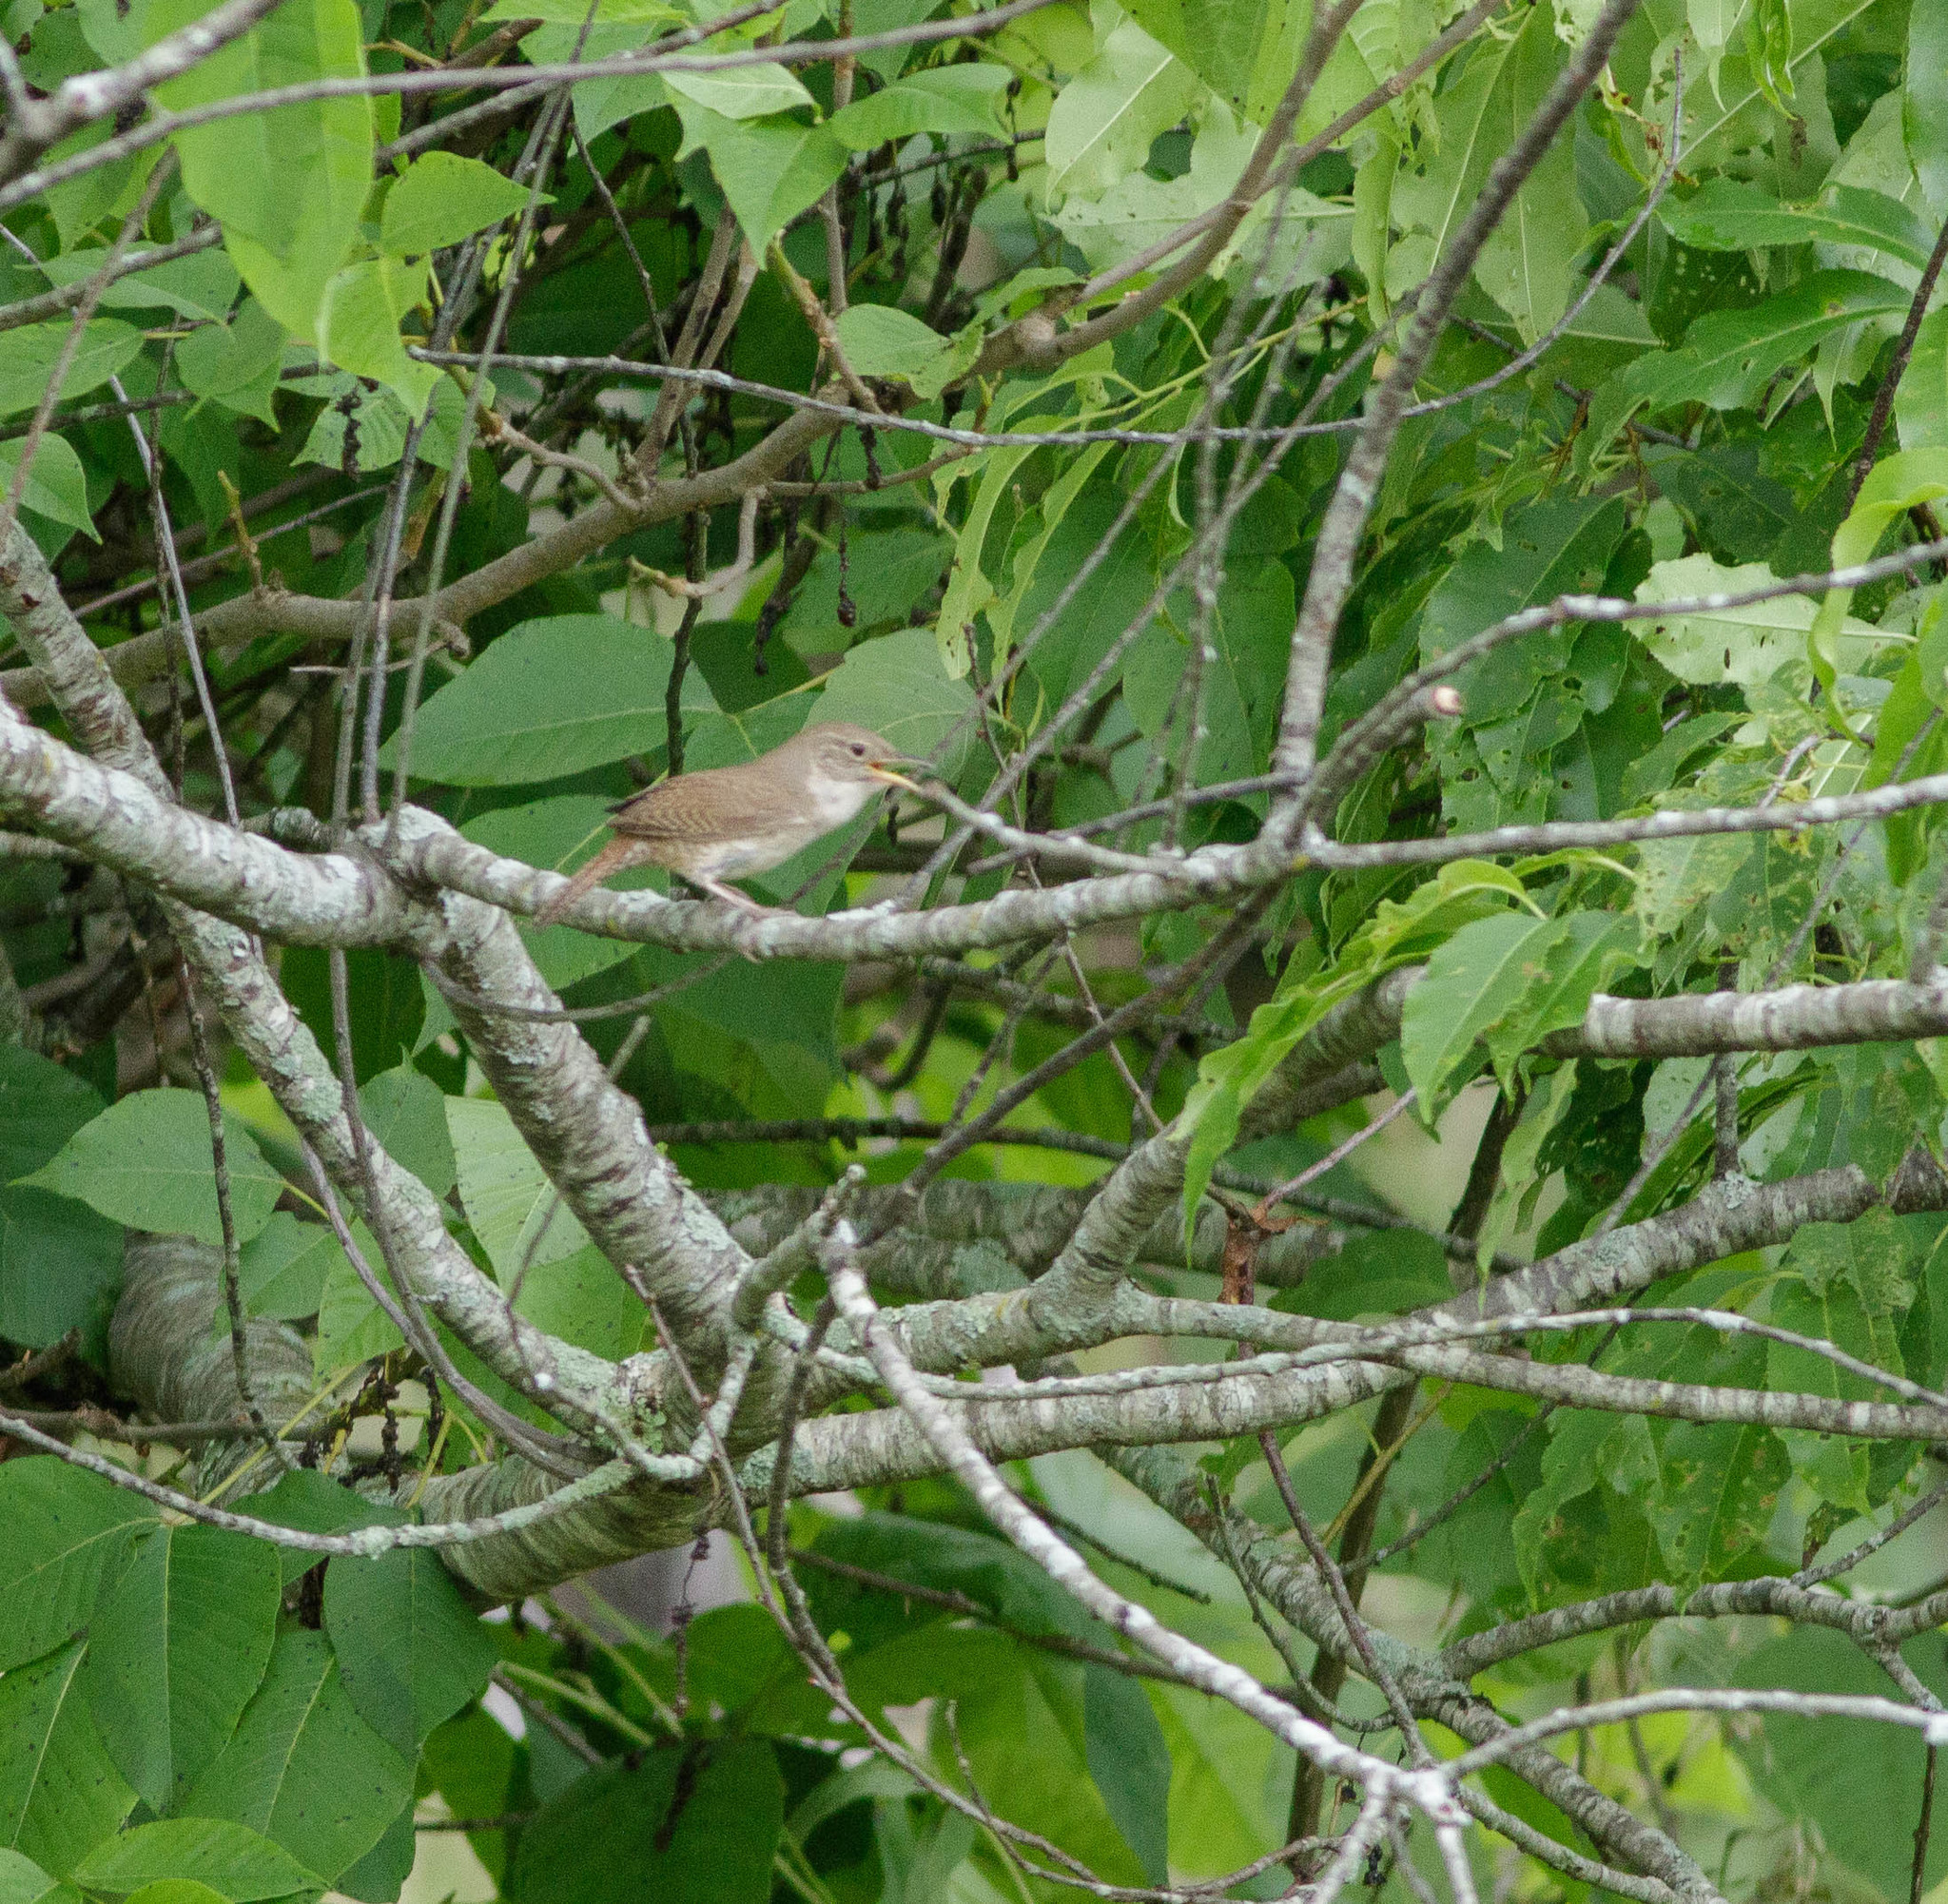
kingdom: Animalia
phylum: Chordata
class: Aves
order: Passeriformes
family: Troglodytidae
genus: Troglodytes
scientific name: Troglodytes aedon
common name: House wren
